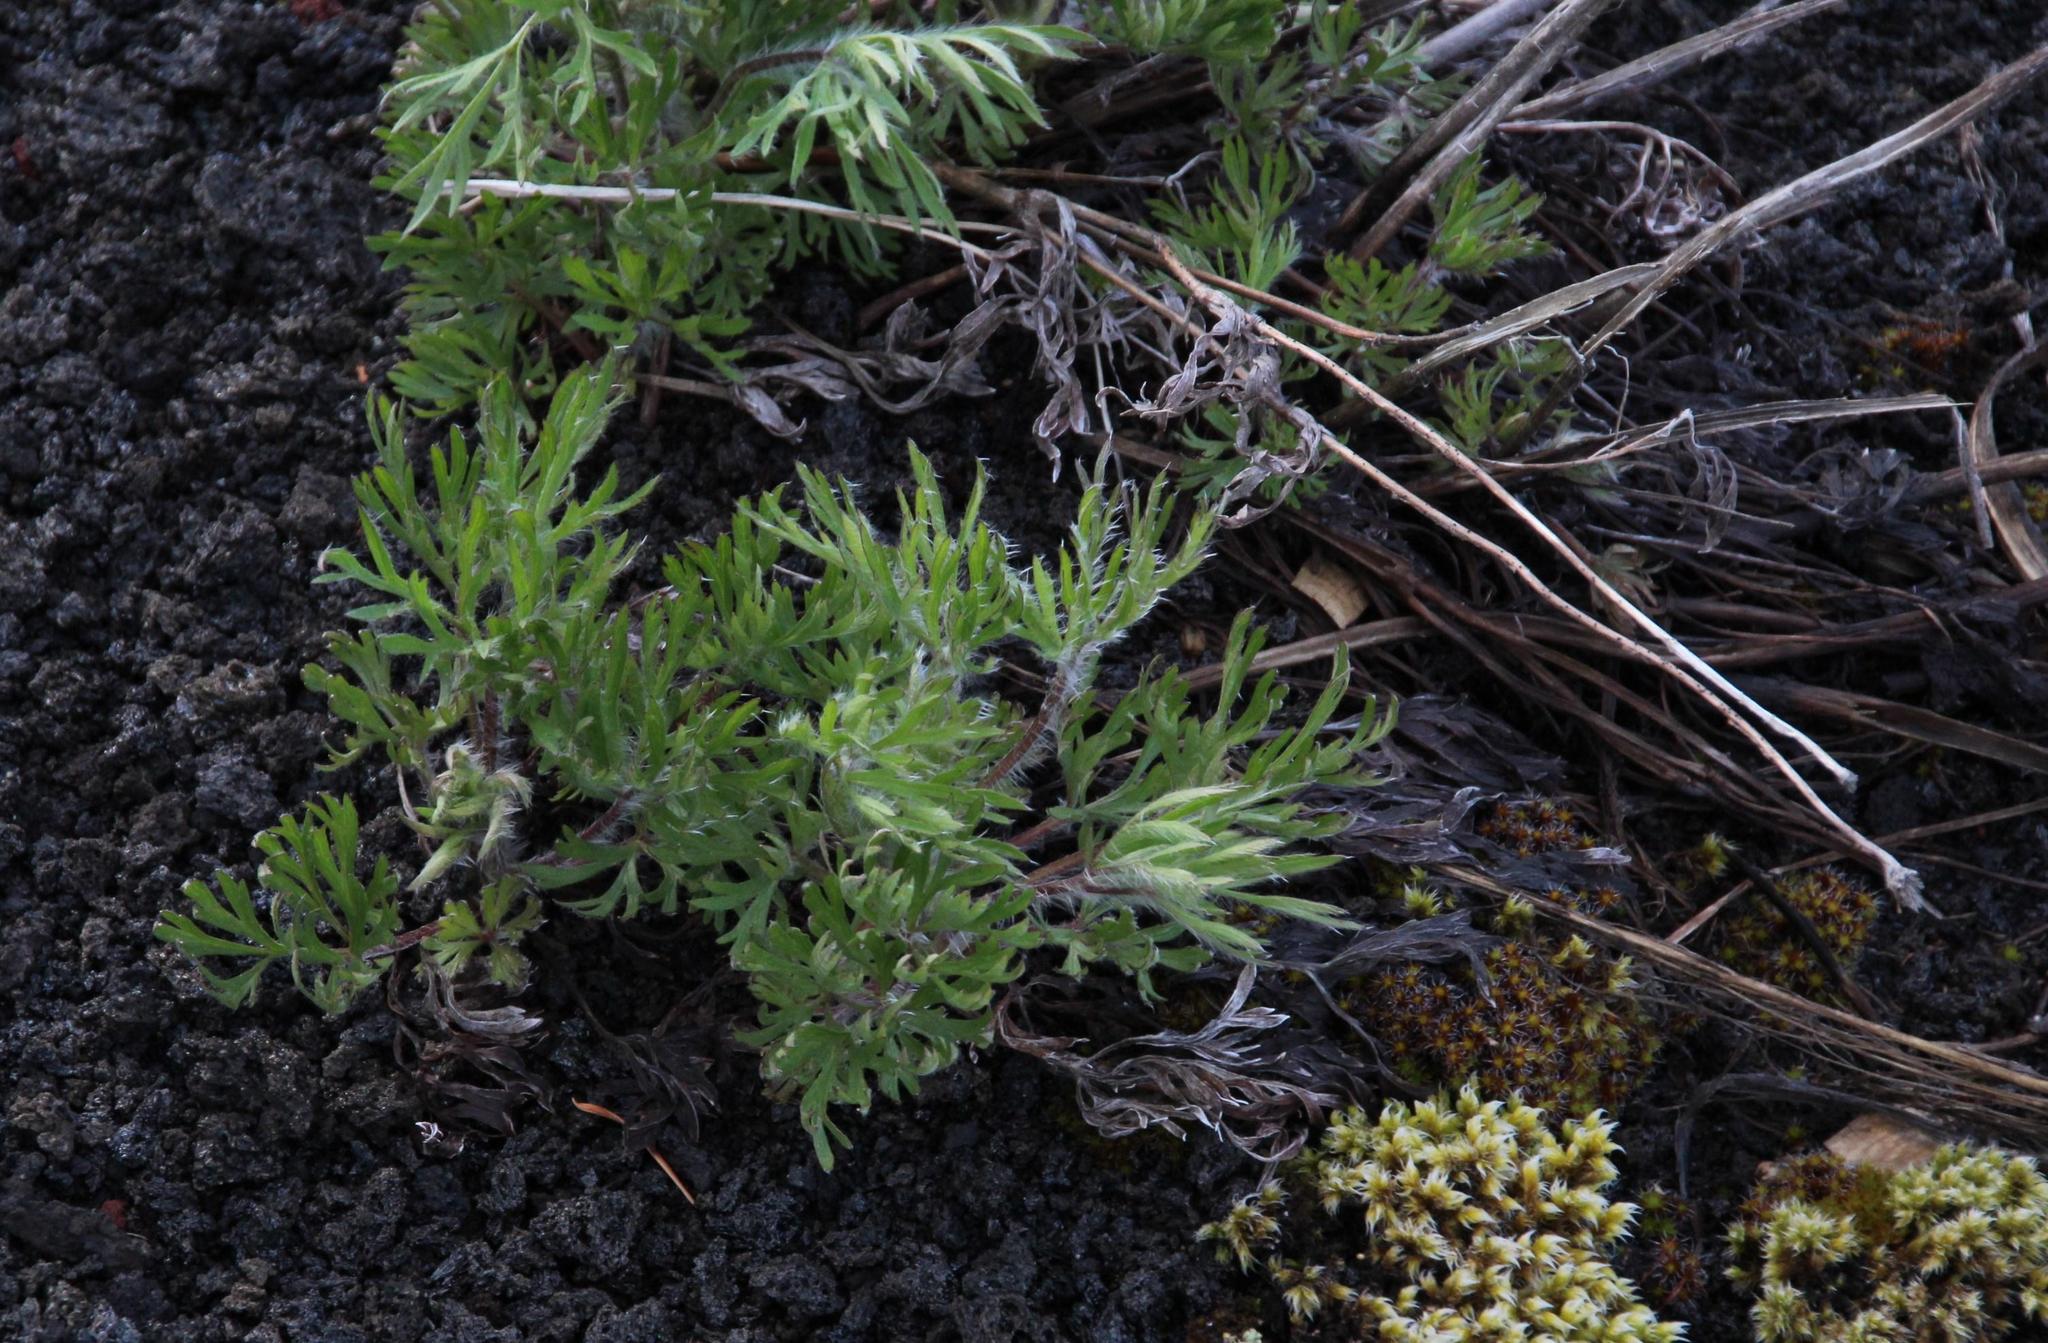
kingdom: Plantae
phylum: Tracheophyta
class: Magnoliopsida
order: Ranunculales
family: Ranunculaceae
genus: Anemone
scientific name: Anemone multifida
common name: Bird's-foot anemone
